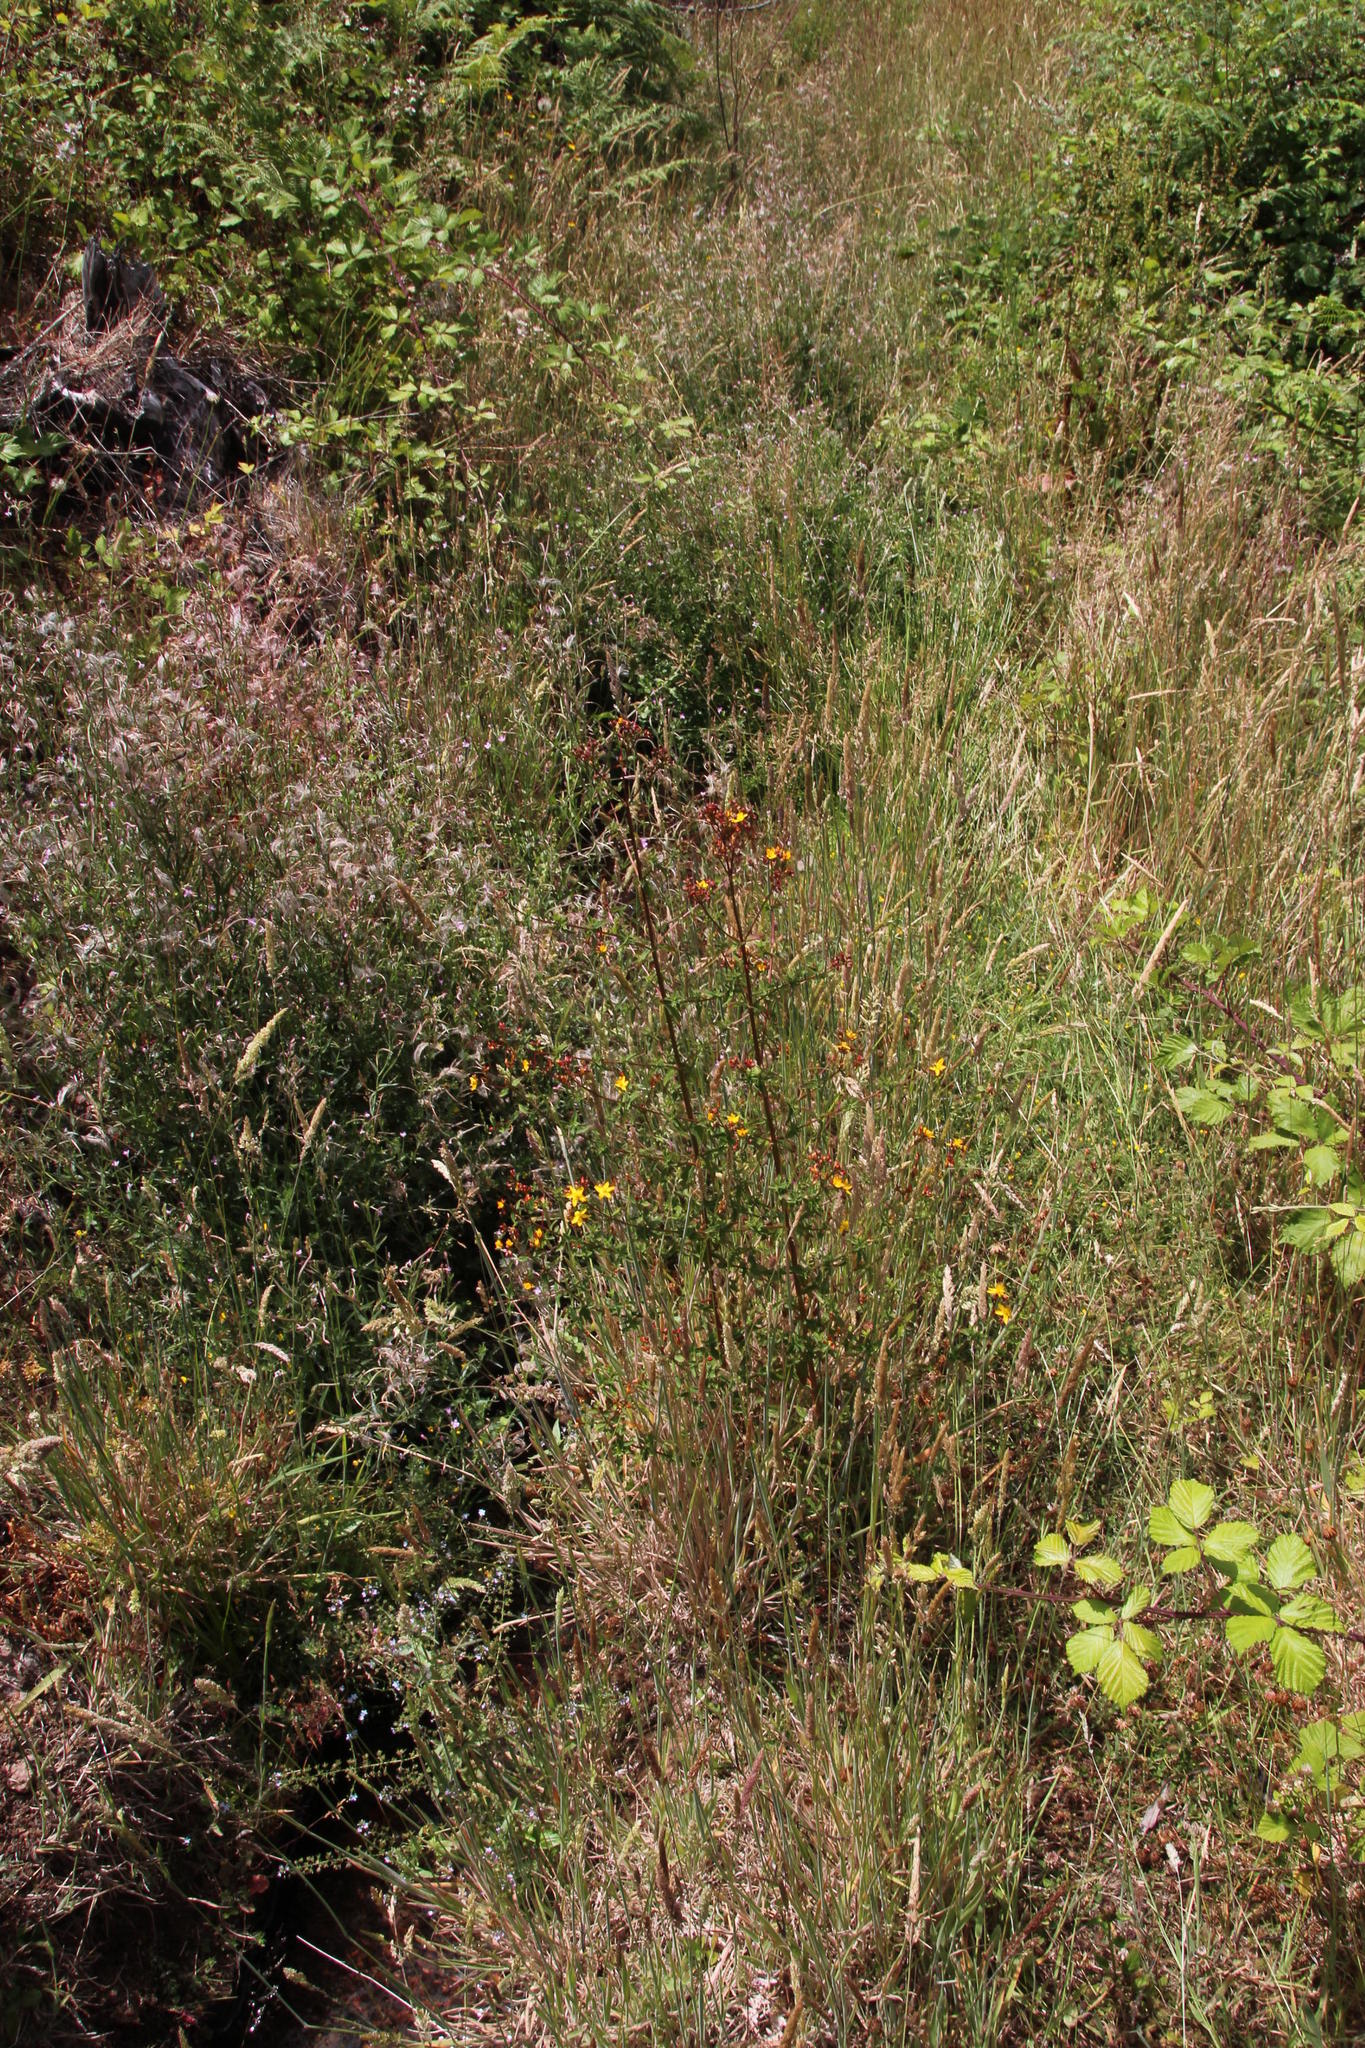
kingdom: Plantae
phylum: Tracheophyta
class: Magnoliopsida
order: Malpighiales
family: Hypericaceae
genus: Hypericum
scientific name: Hypericum undulatum
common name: Wavy st. john's-wort
